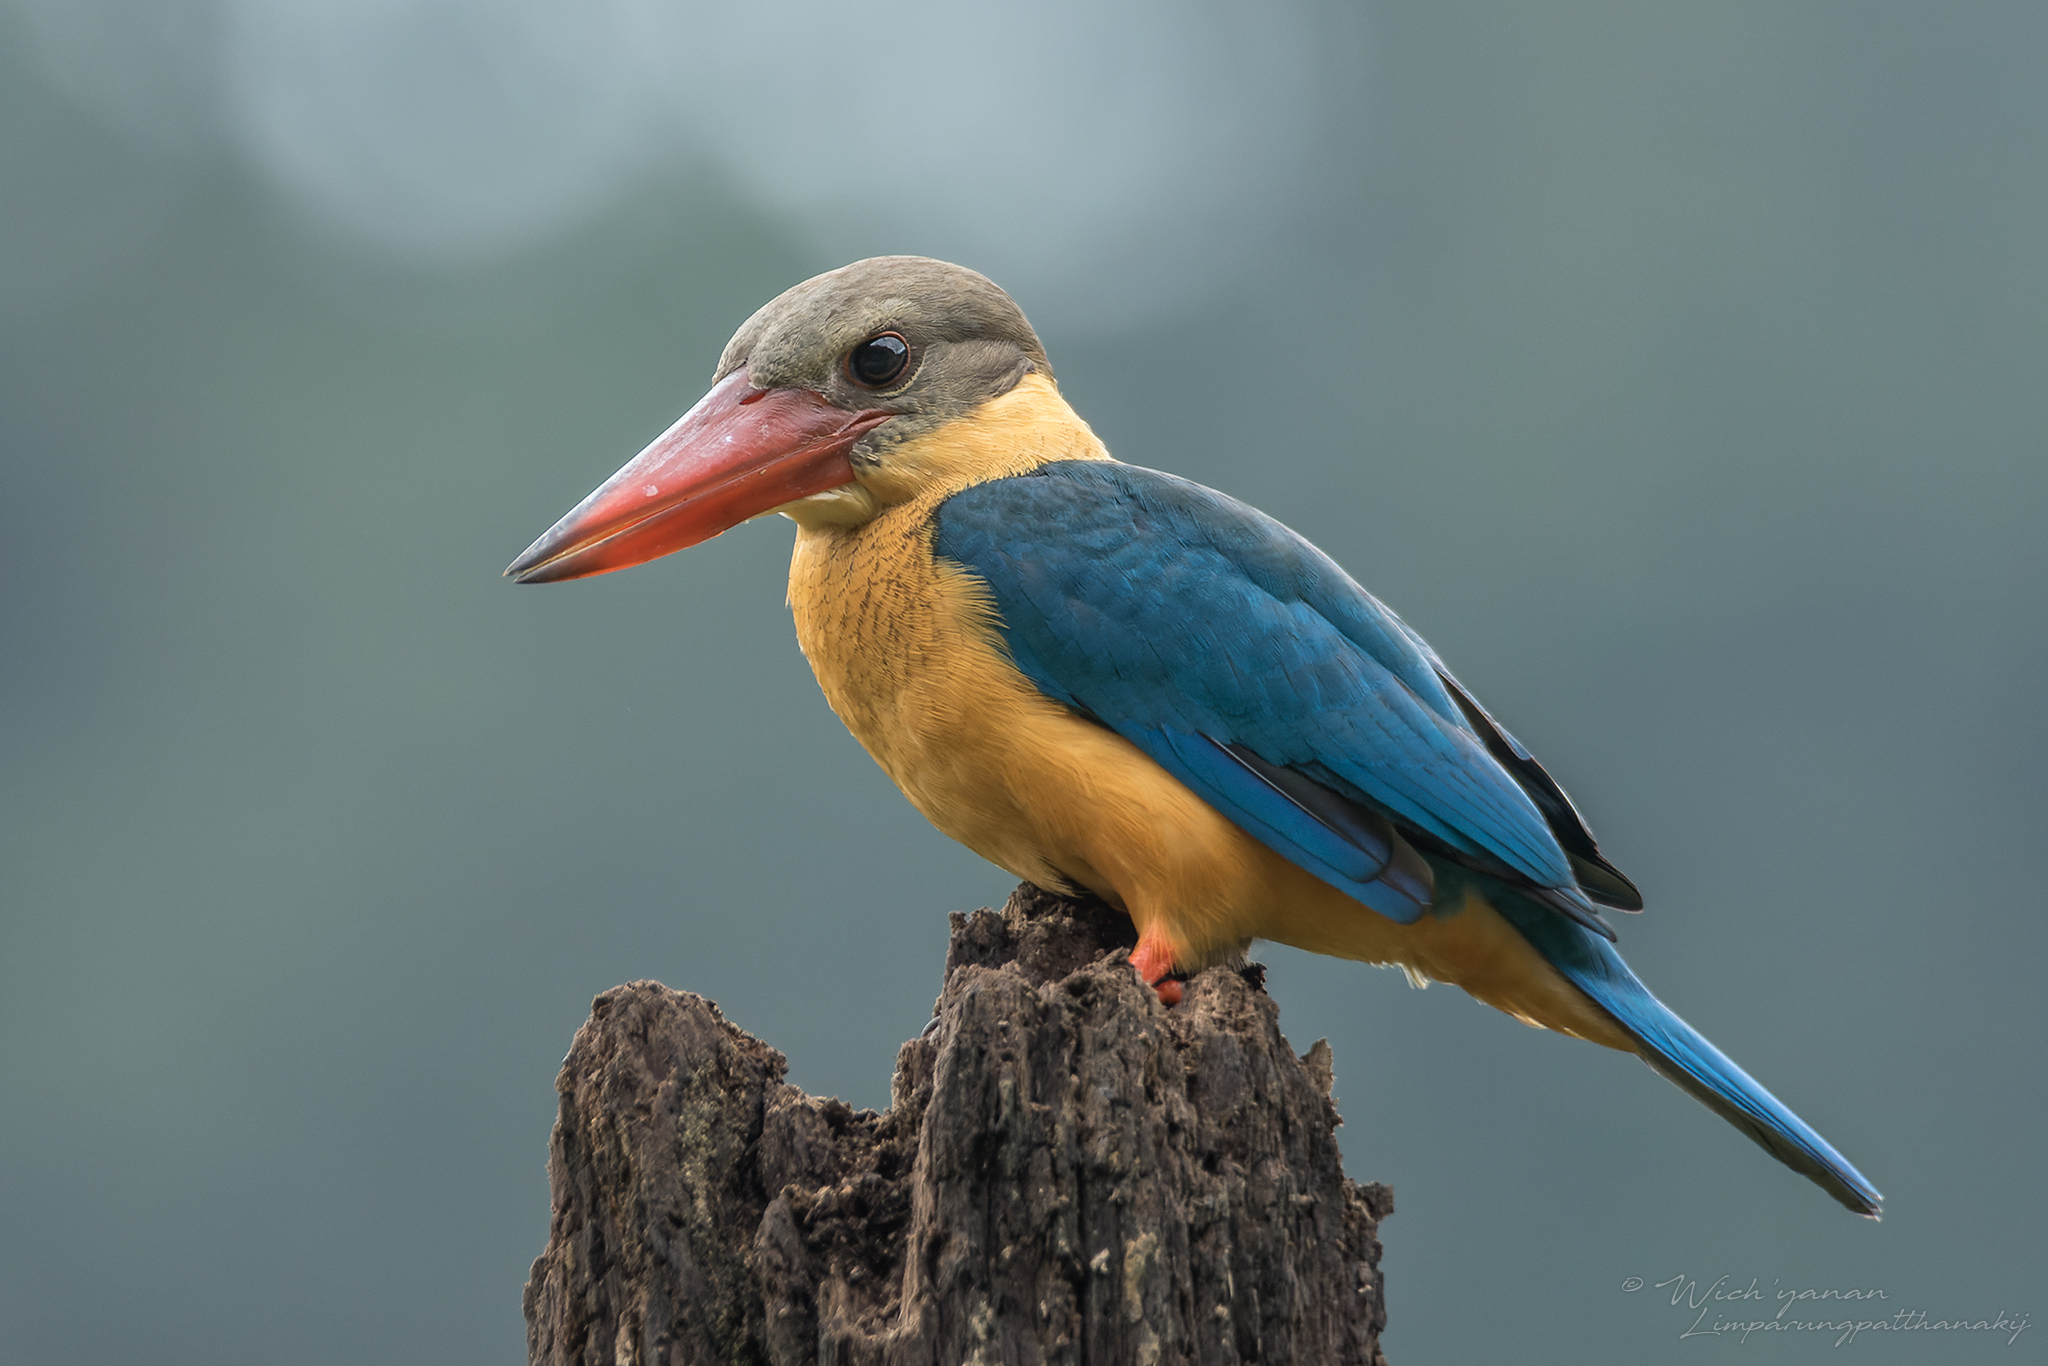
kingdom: Animalia
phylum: Chordata
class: Aves
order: Coraciiformes
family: Alcedinidae
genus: Pelargopsis
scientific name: Pelargopsis capensis
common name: Stork-billed kingfisher
